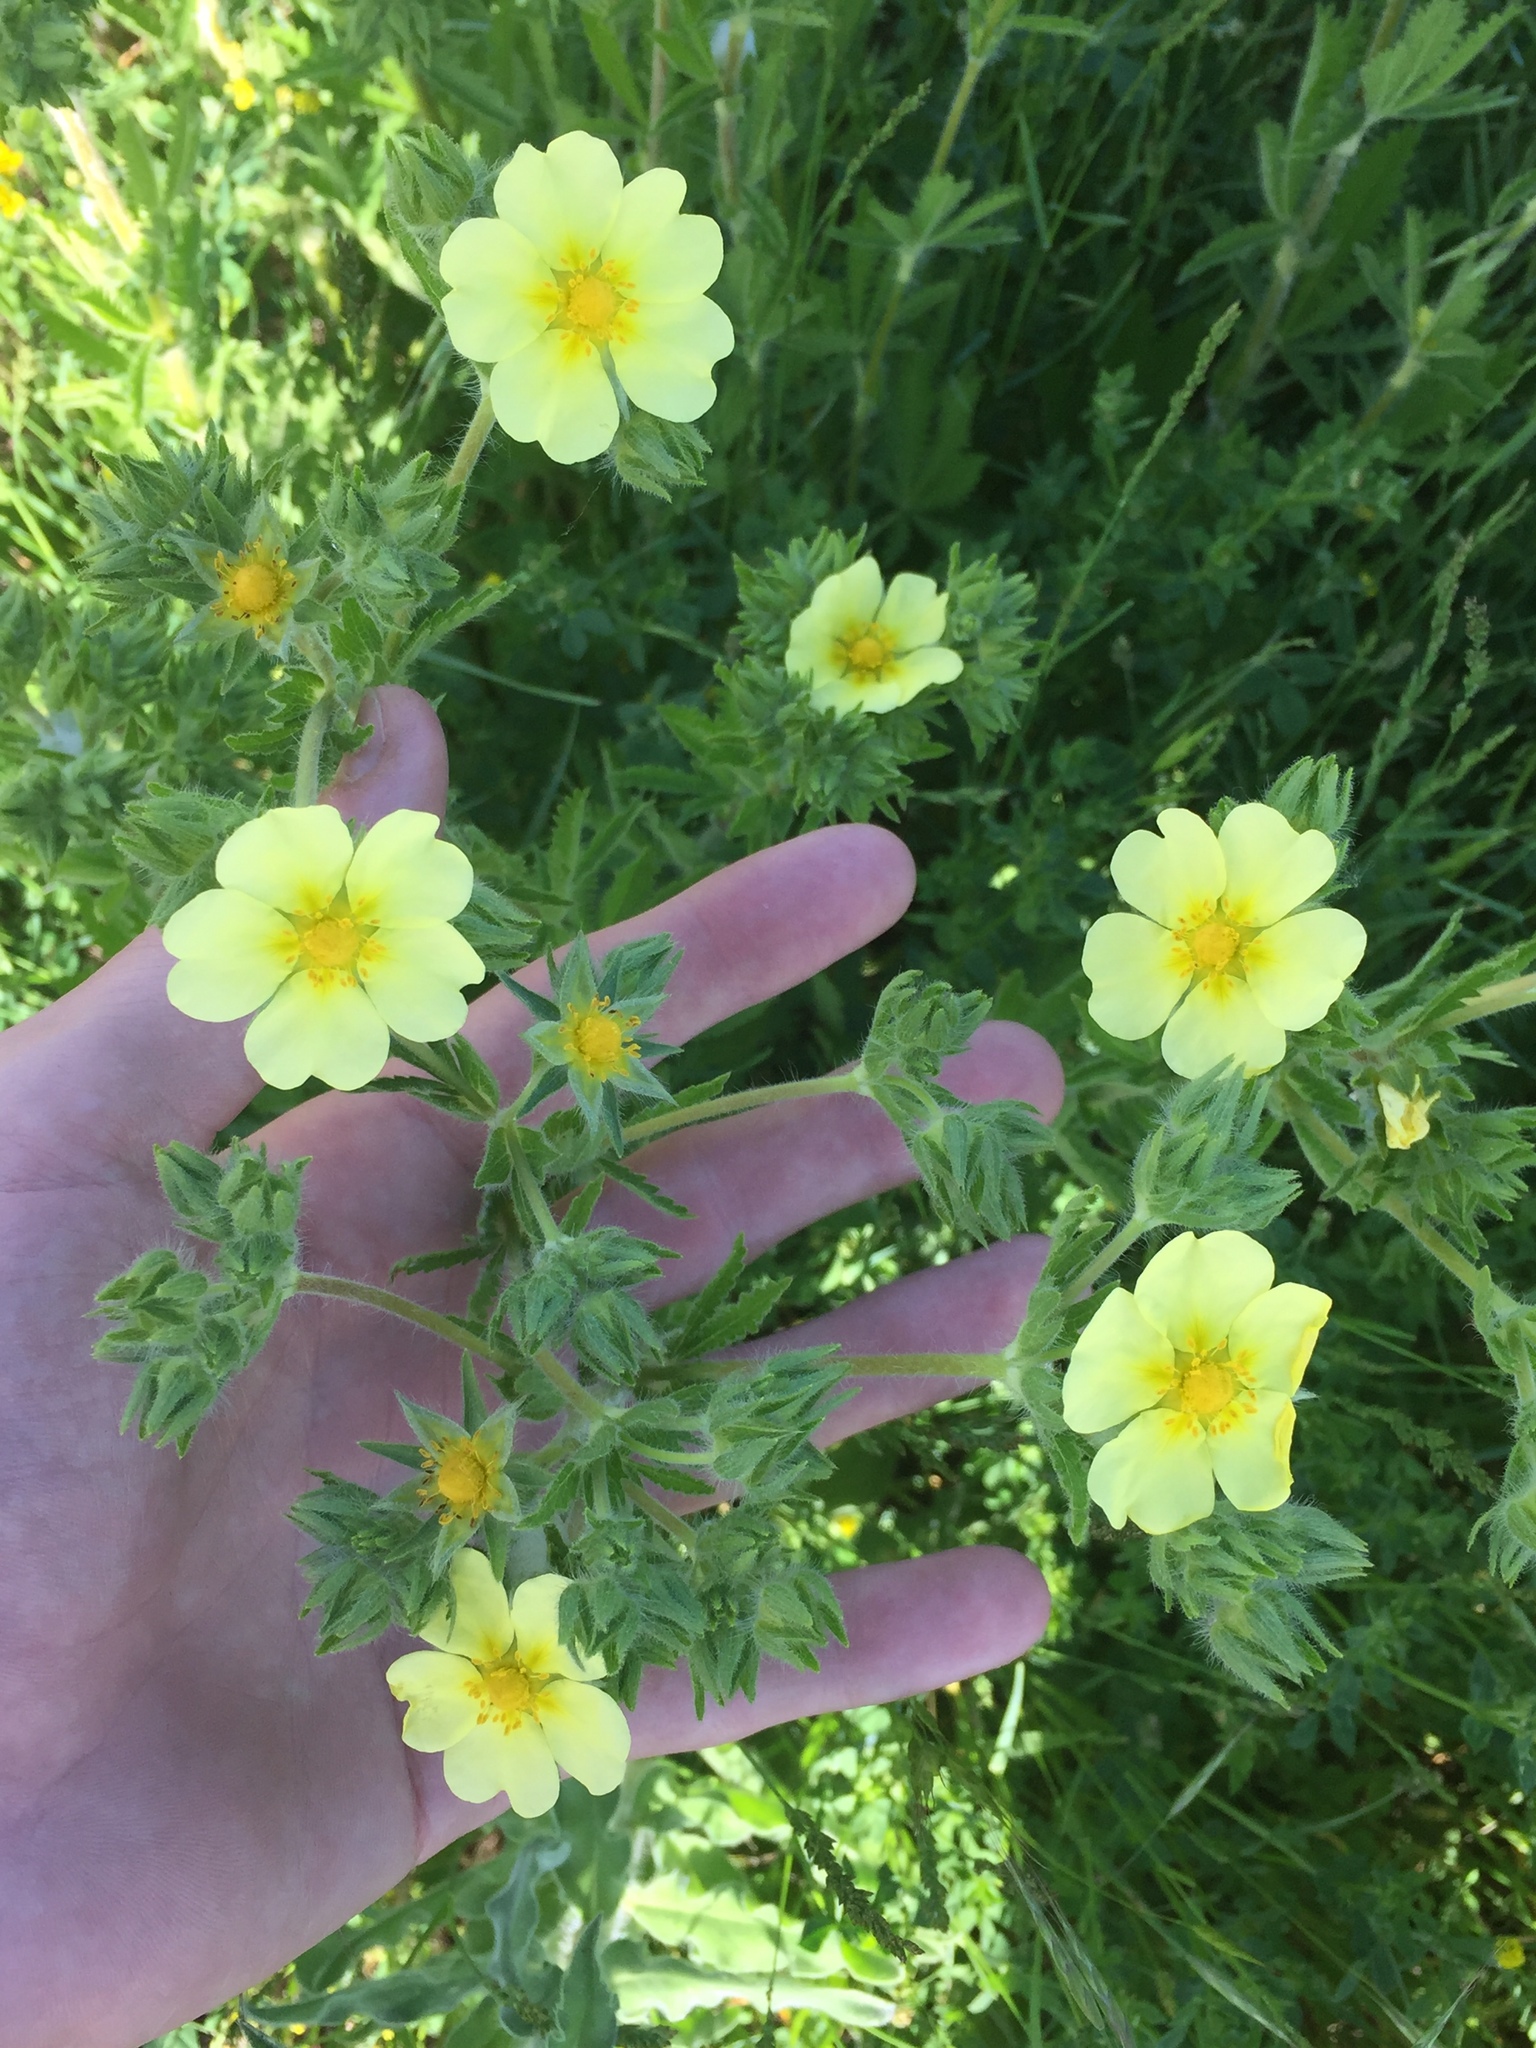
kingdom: Plantae
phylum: Tracheophyta
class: Magnoliopsida
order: Rosales
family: Rosaceae
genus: Potentilla
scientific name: Potentilla recta
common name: Sulphur cinquefoil
